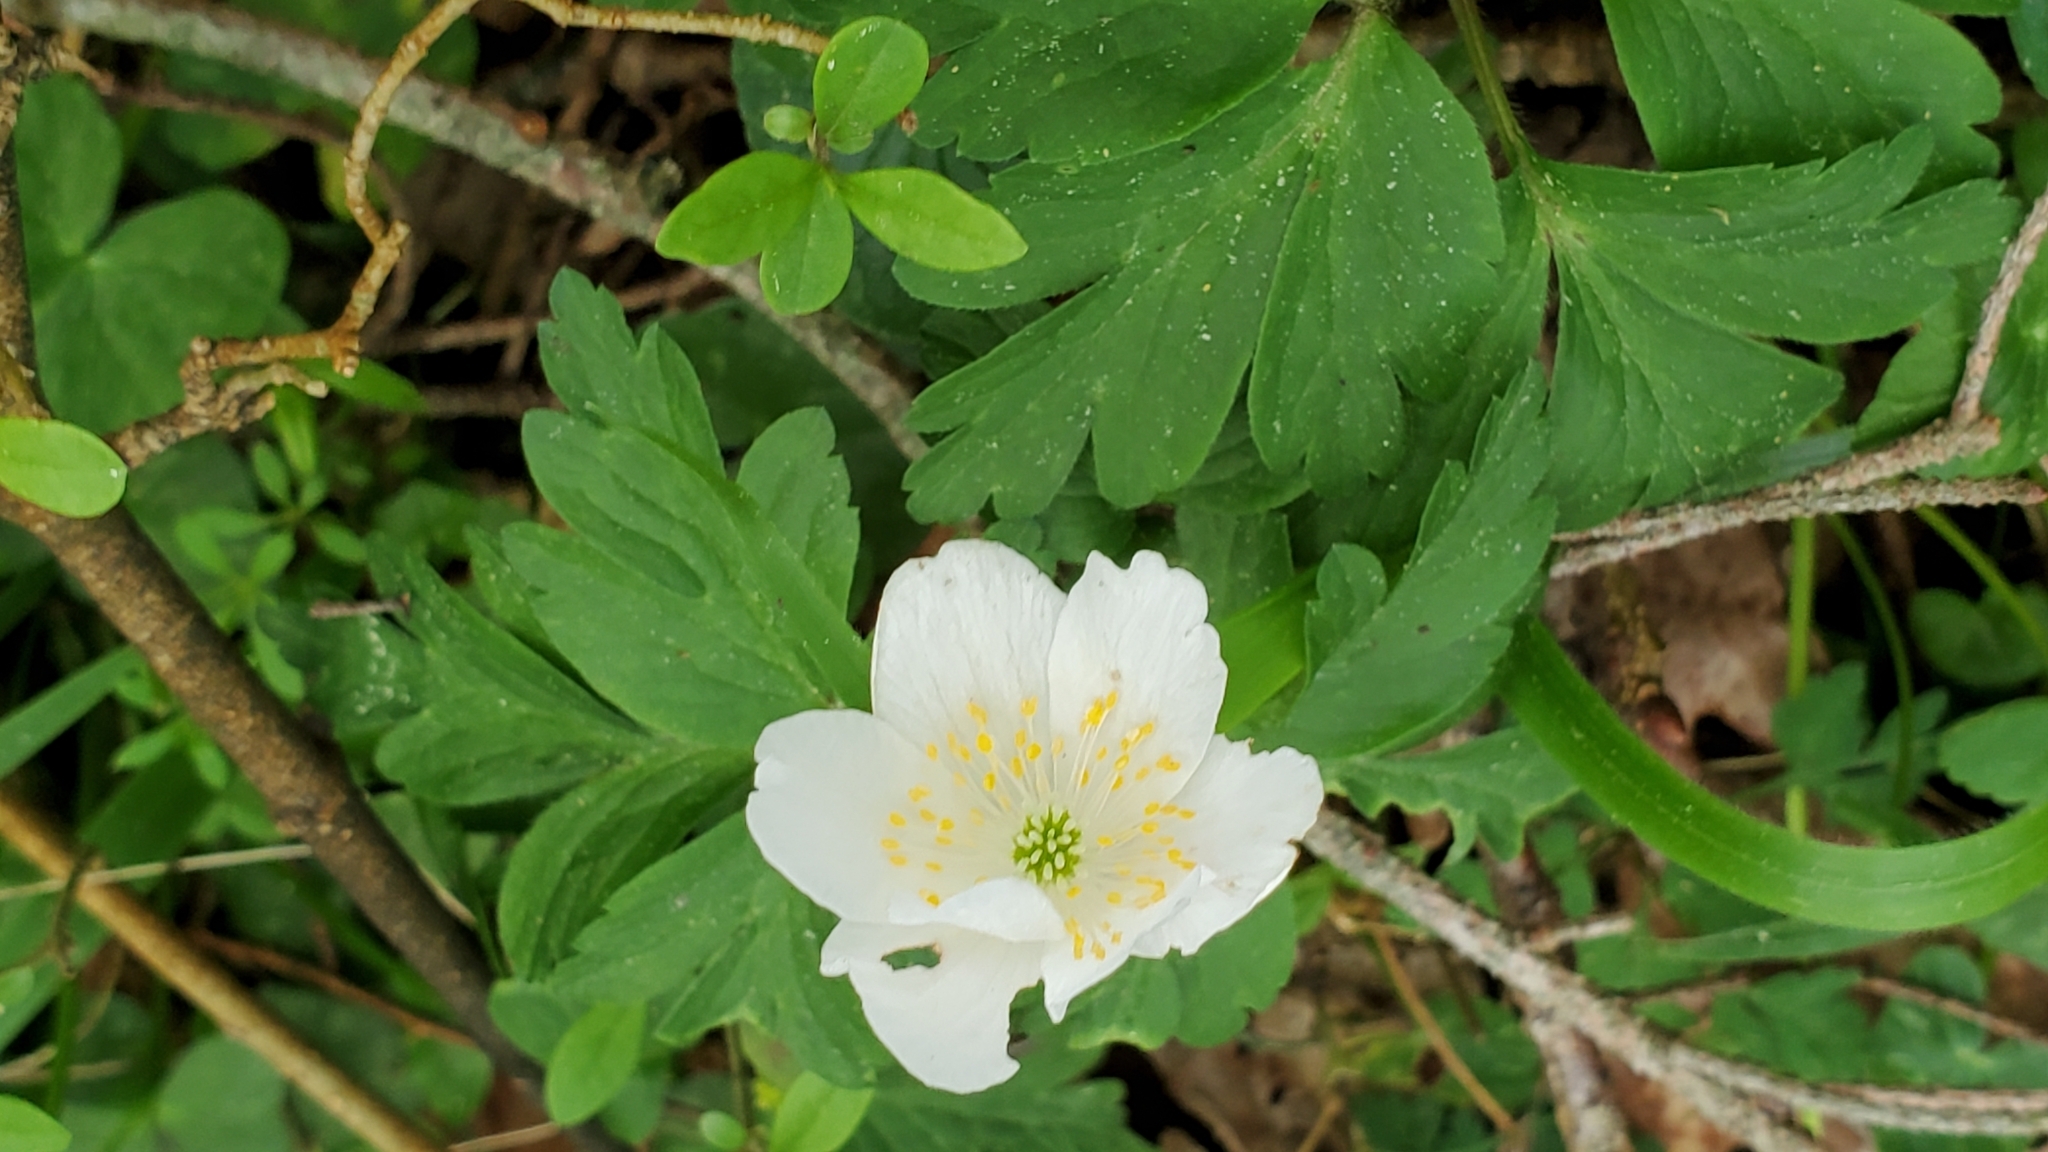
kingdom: Plantae
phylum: Tracheophyta
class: Magnoliopsida
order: Ranunculales
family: Ranunculaceae
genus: Anemone
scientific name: Anemone nemorosa
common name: Wood anemone
